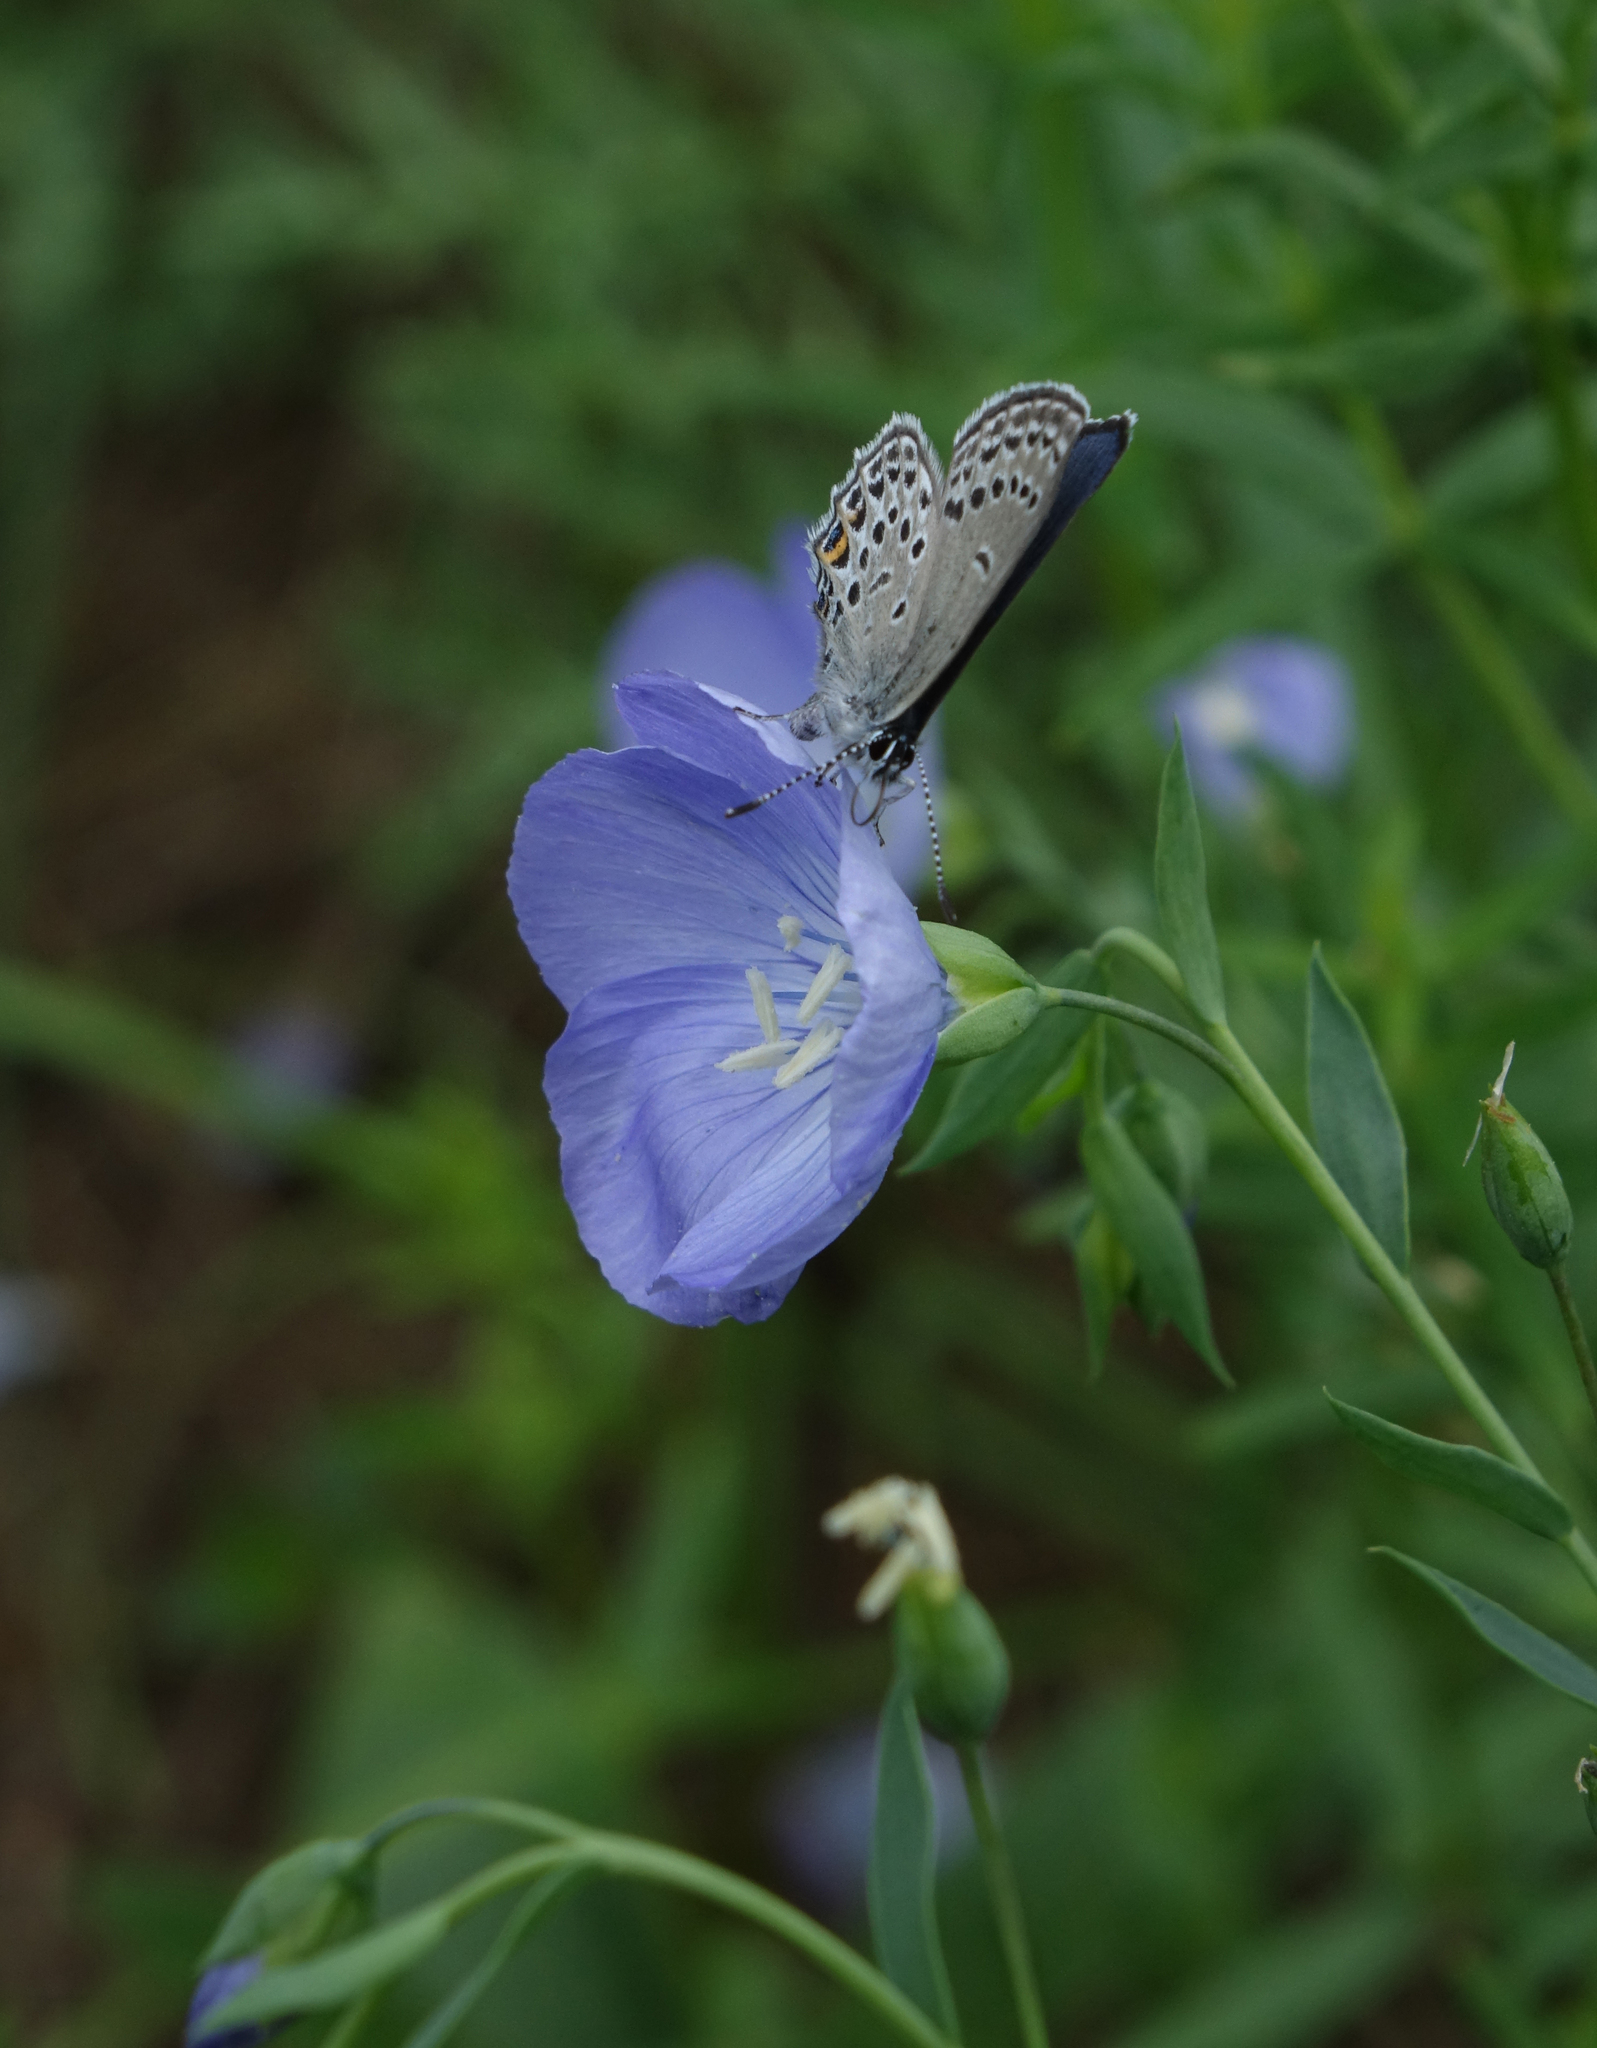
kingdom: Animalia
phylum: Arthropoda
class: Insecta
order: Lepidoptera
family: Lycaenidae
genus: Vacciniina
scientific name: Vacciniina optilete
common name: Cranberry blue
